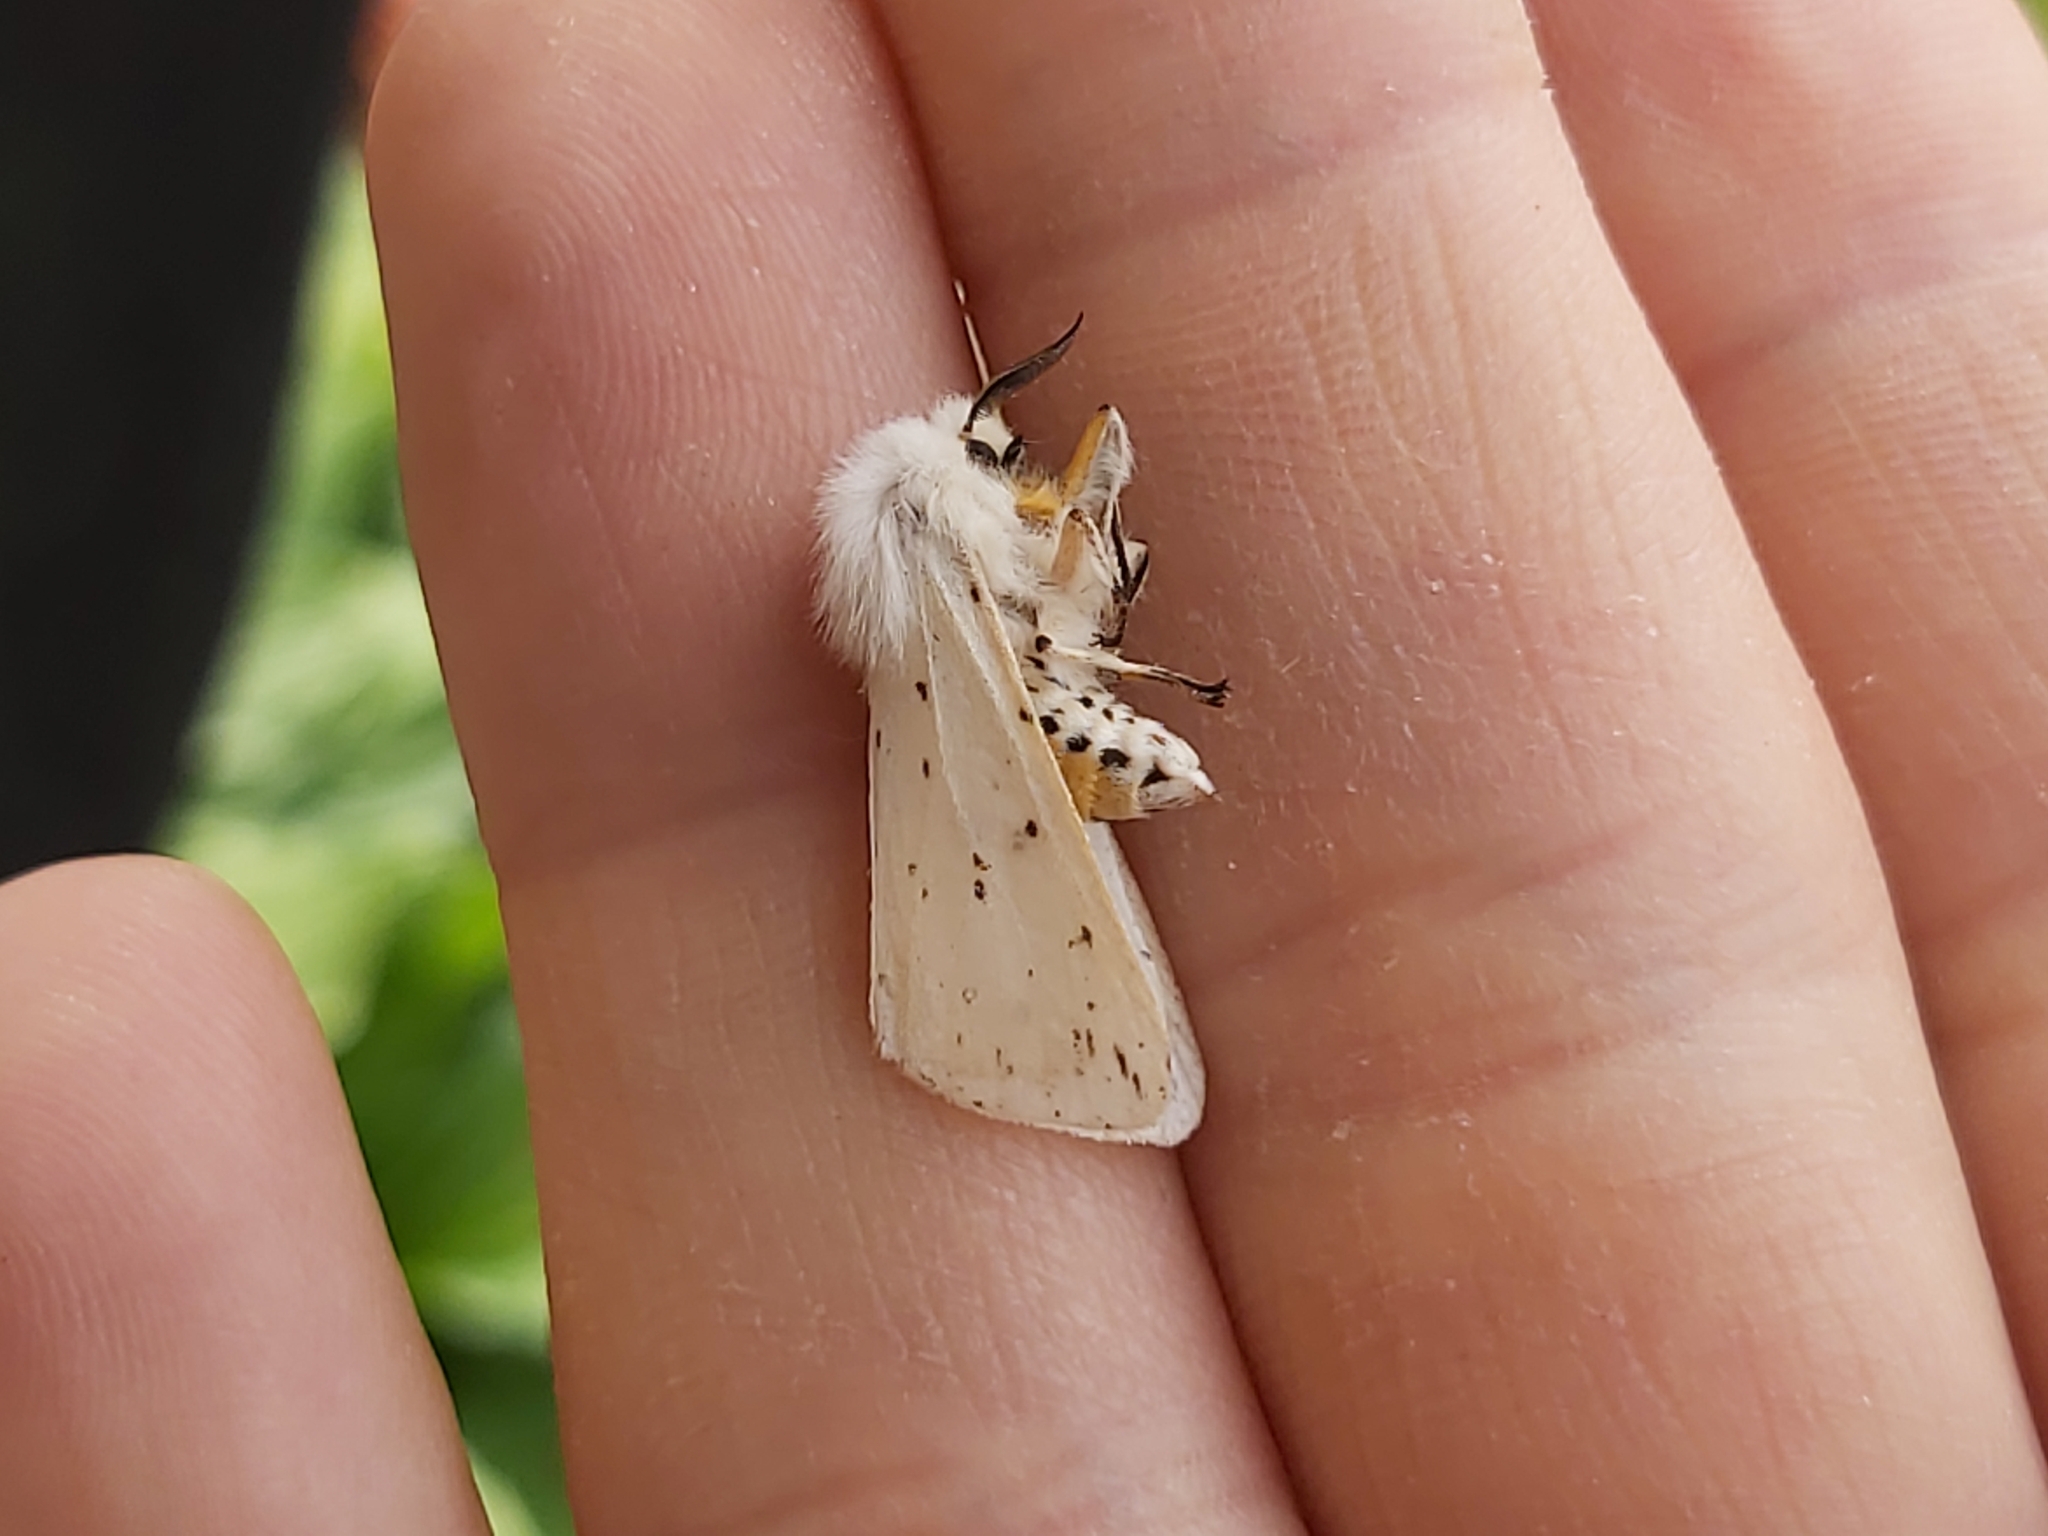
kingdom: Animalia
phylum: Arthropoda
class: Insecta
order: Lepidoptera
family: Erebidae
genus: Spilosoma
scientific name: Spilosoma lubricipeda
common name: White ermine
